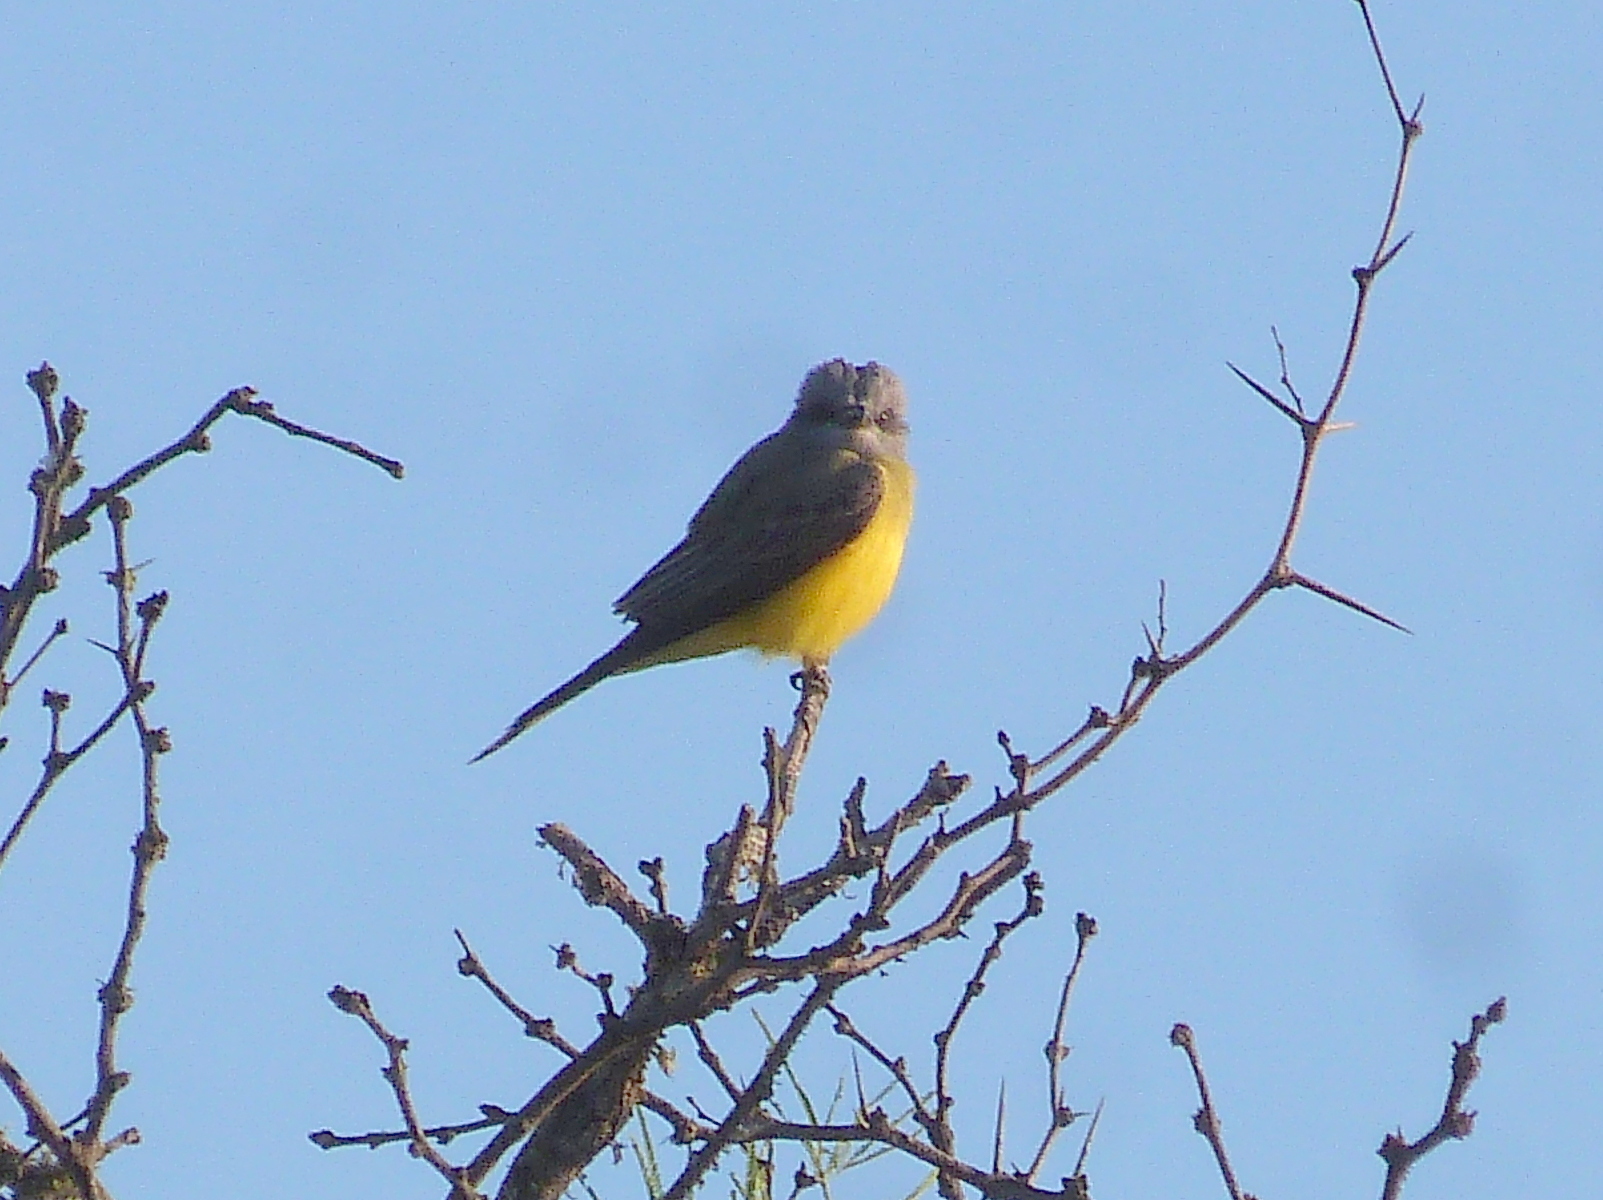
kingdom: Animalia
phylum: Chordata
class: Aves
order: Passeriformes
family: Tyrannidae
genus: Tyrannus
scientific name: Tyrannus melancholicus
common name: Tropical kingbird
